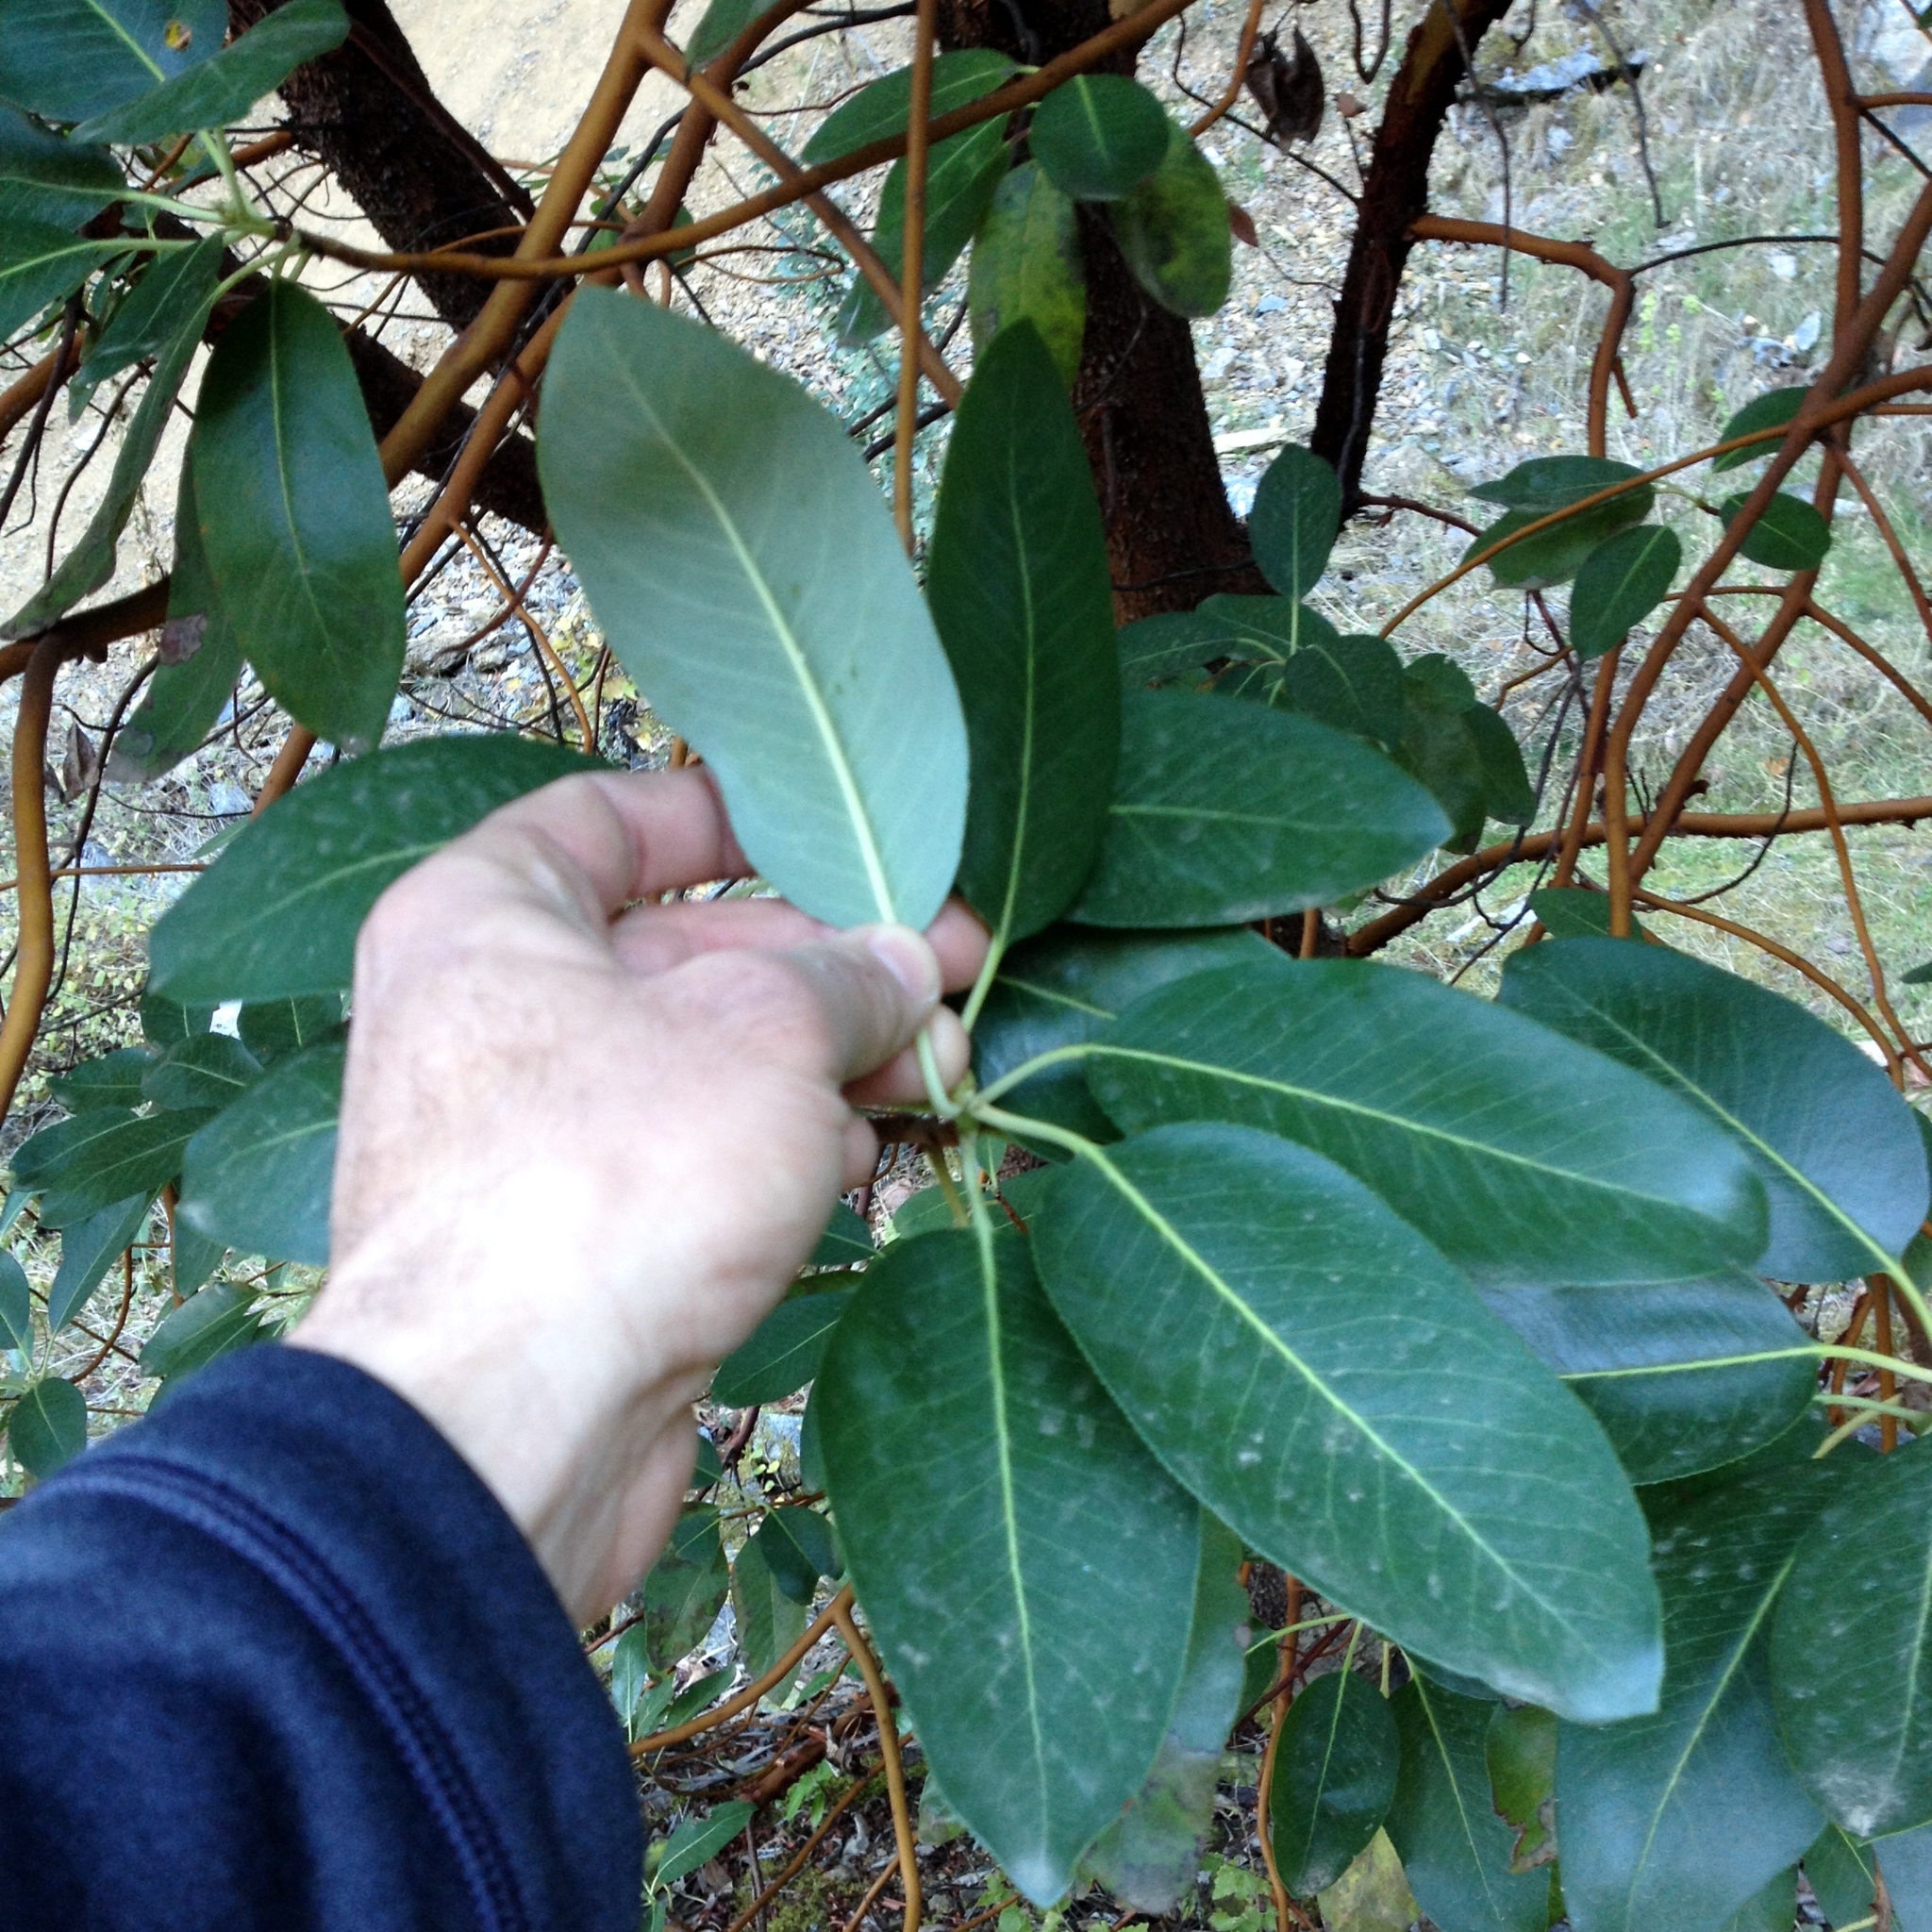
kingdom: Plantae
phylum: Tracheophyta
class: Magnoliopsida
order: Ericales
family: Ericaceae
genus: Arbutus
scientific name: Arbutus menziesii
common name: Pacific madrone
